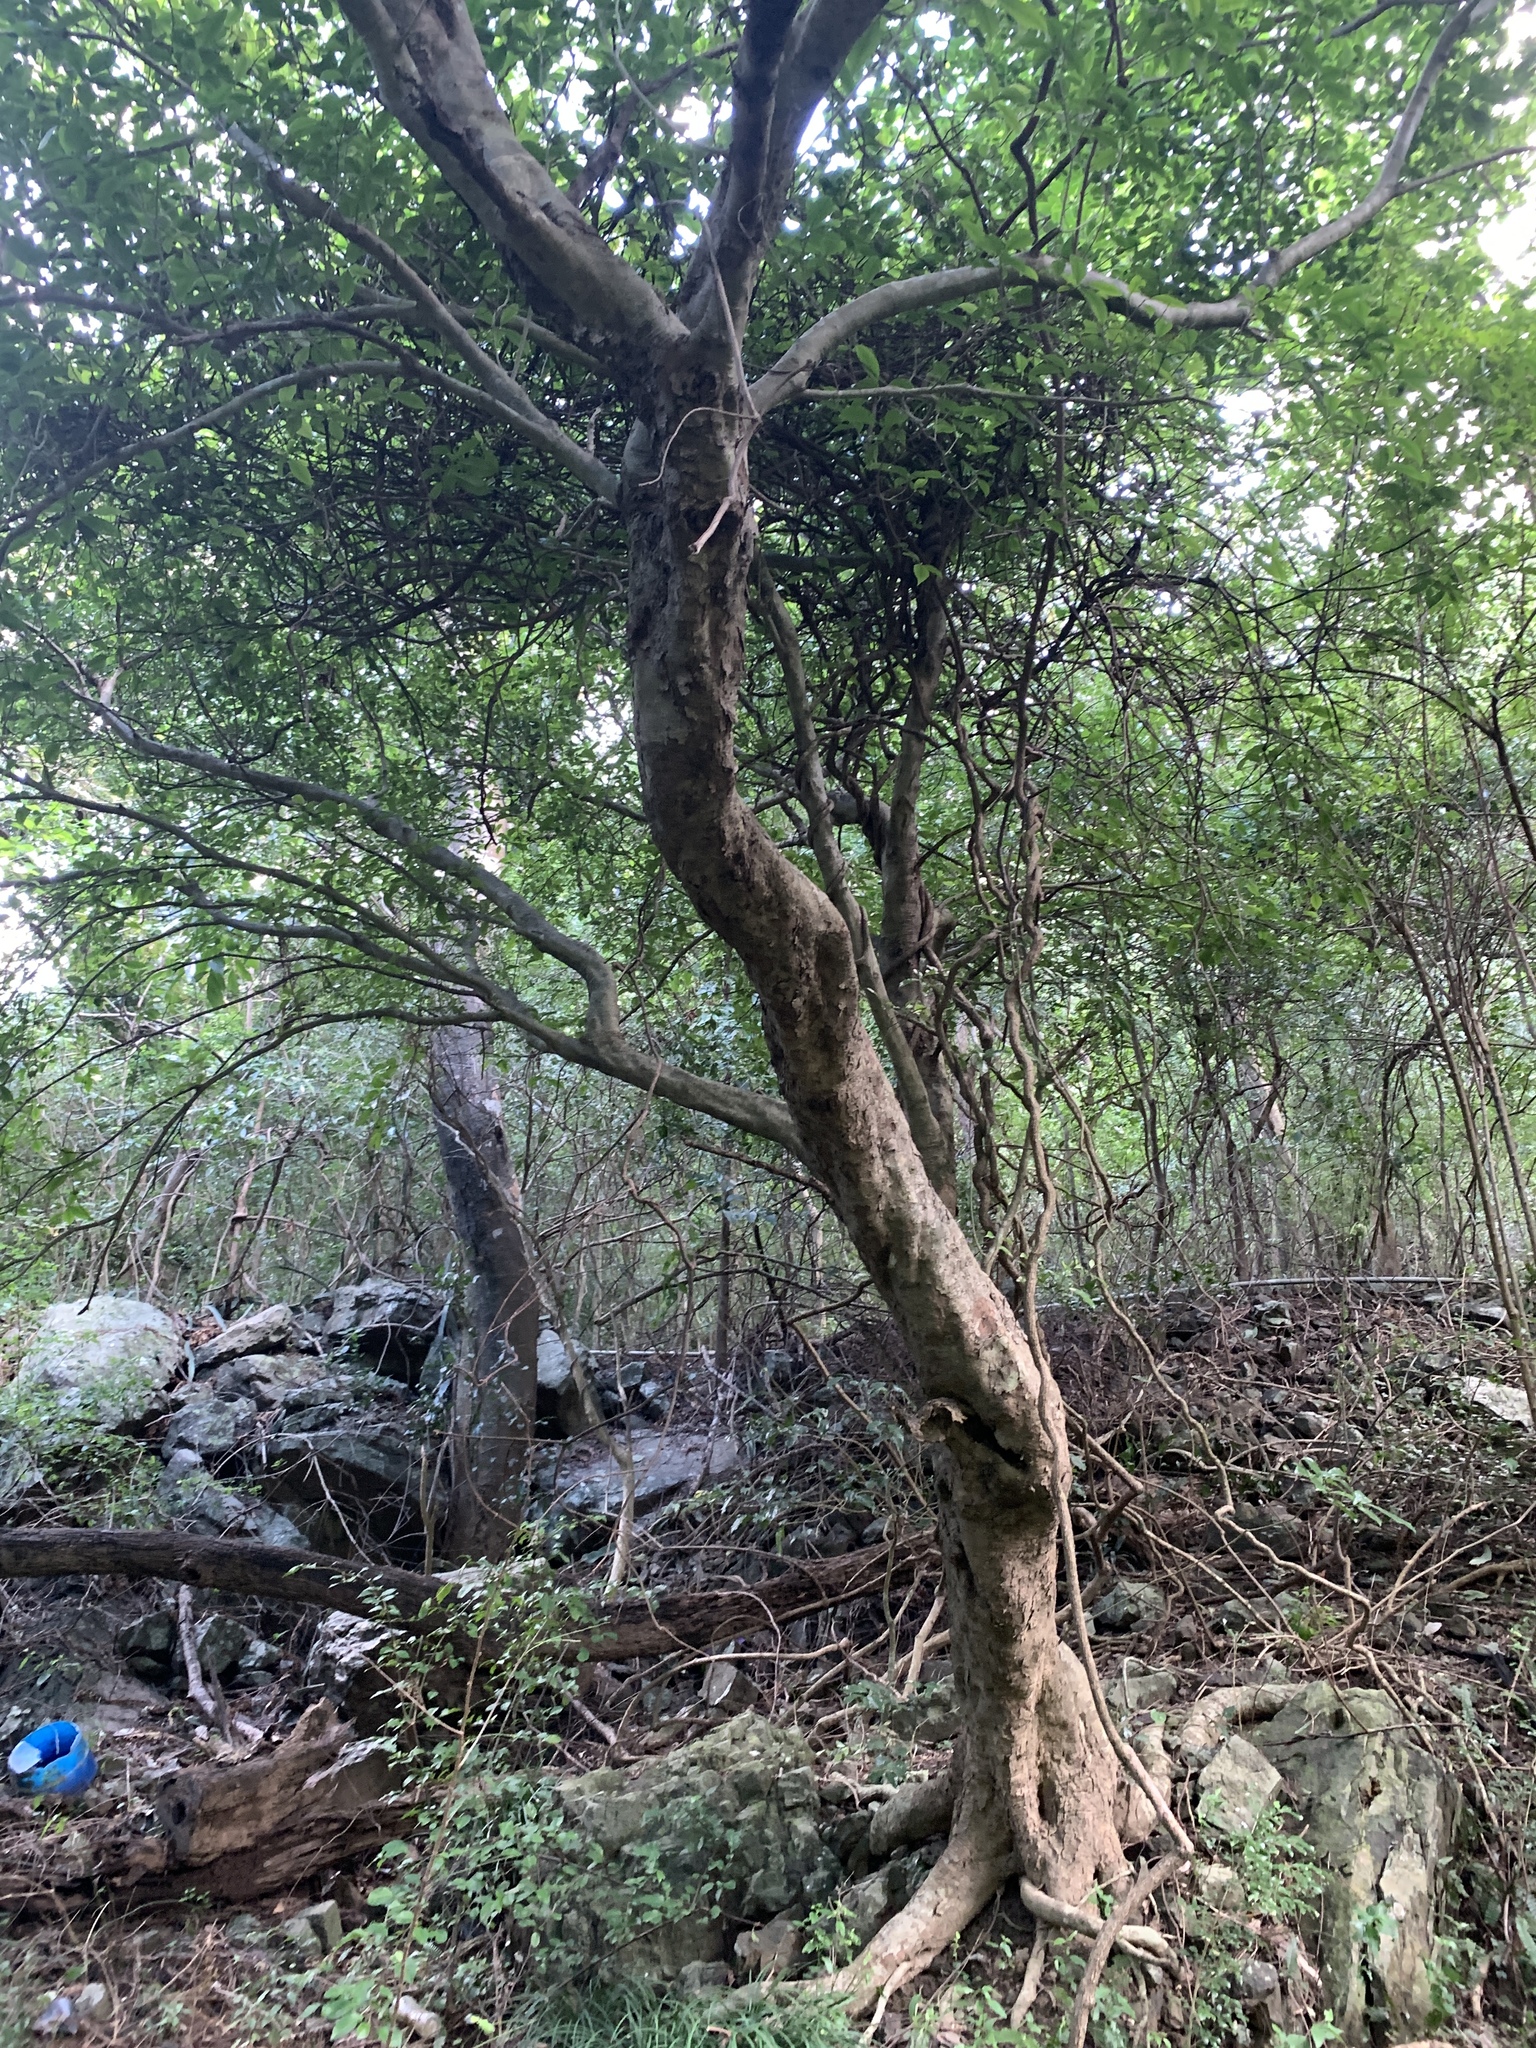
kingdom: Plantae
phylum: Tracheophyta
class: Magnoliopsida
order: Gentianales
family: Rubiaceae
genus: Gardenia
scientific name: Gardenia jasminoides
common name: Cape-jasmine
